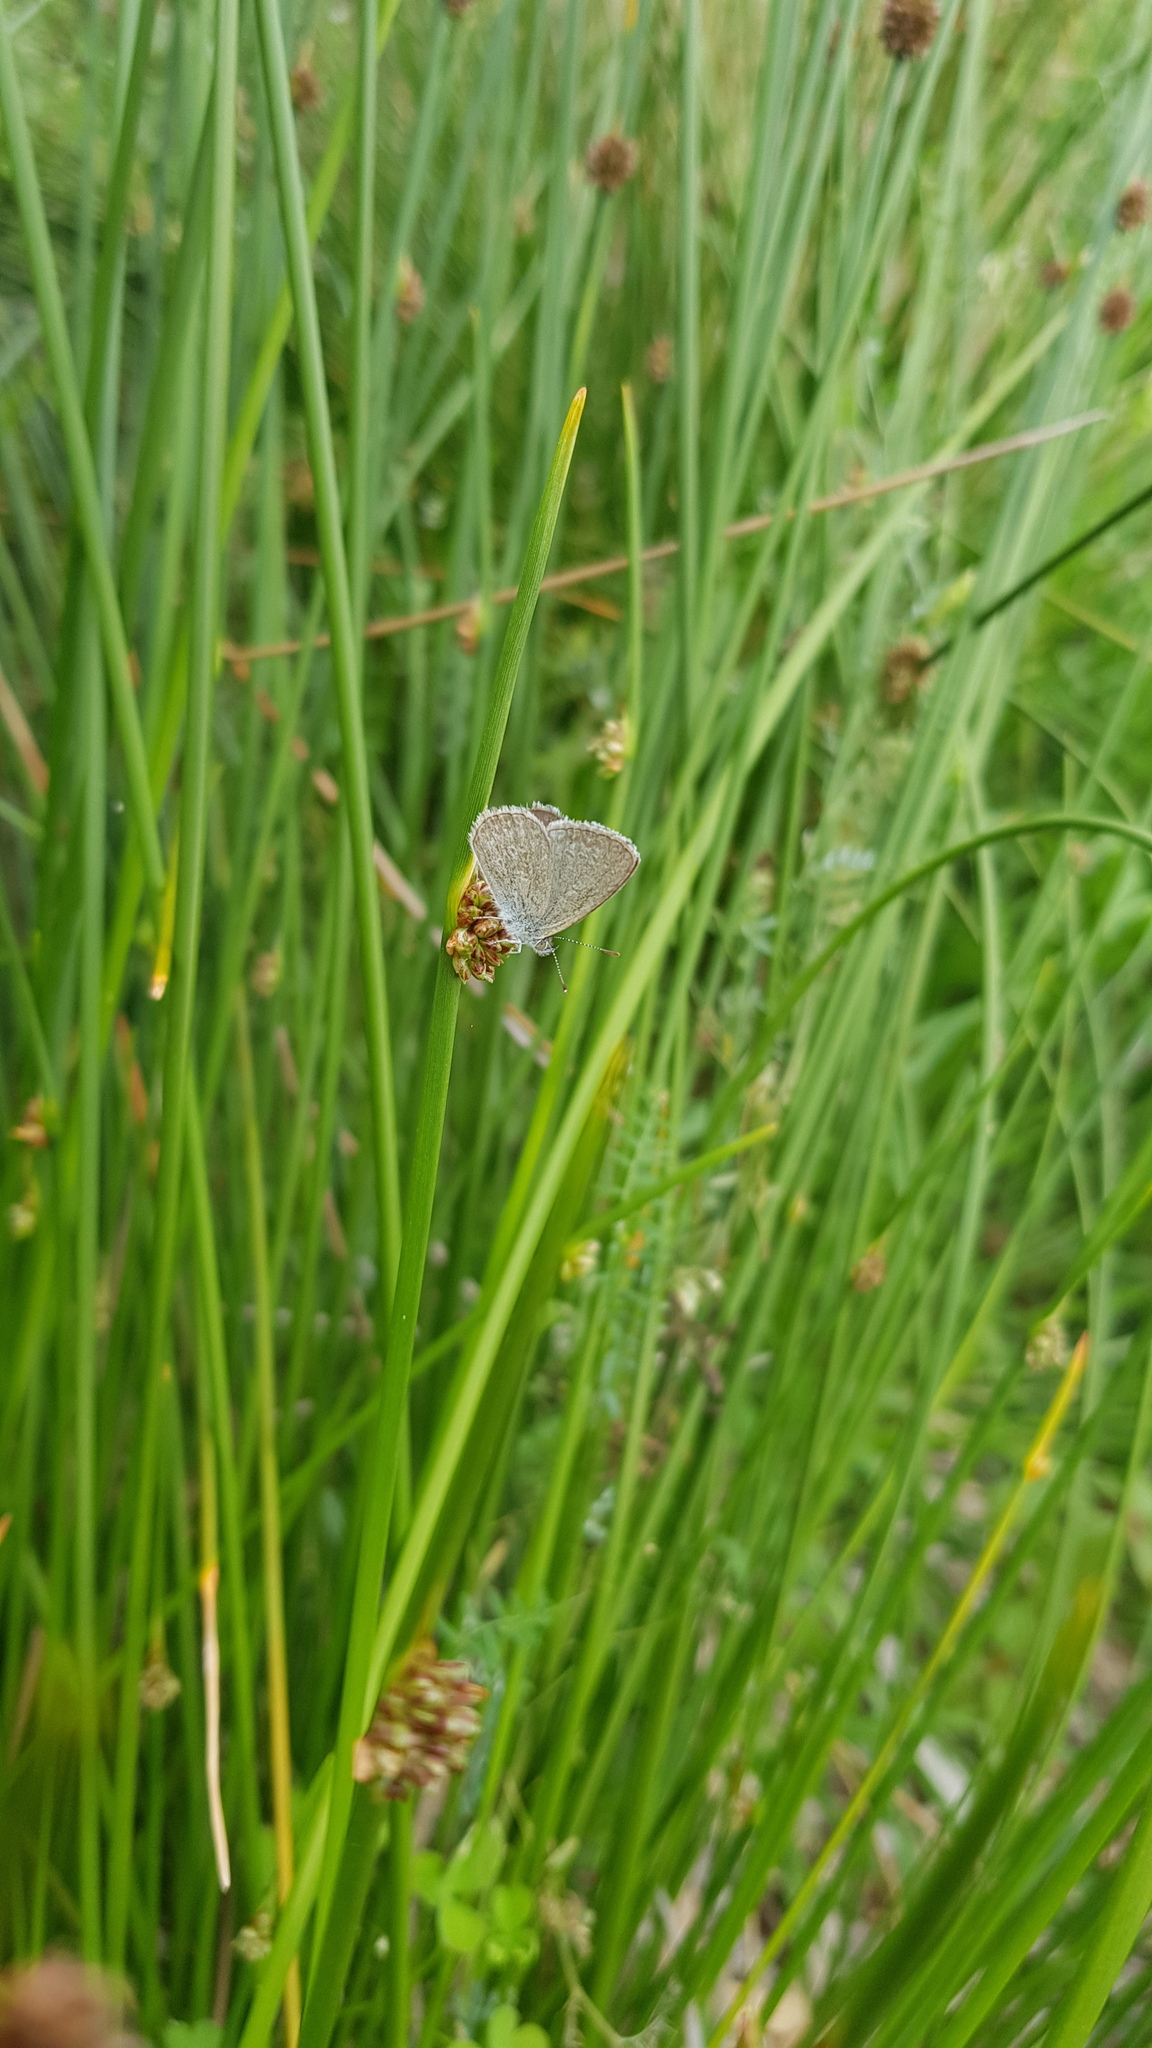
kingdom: Animalia
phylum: Arthropoda
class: Insecta
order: Lepidoptera
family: Lycaenidae
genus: Zizina
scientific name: Zizina labradus
